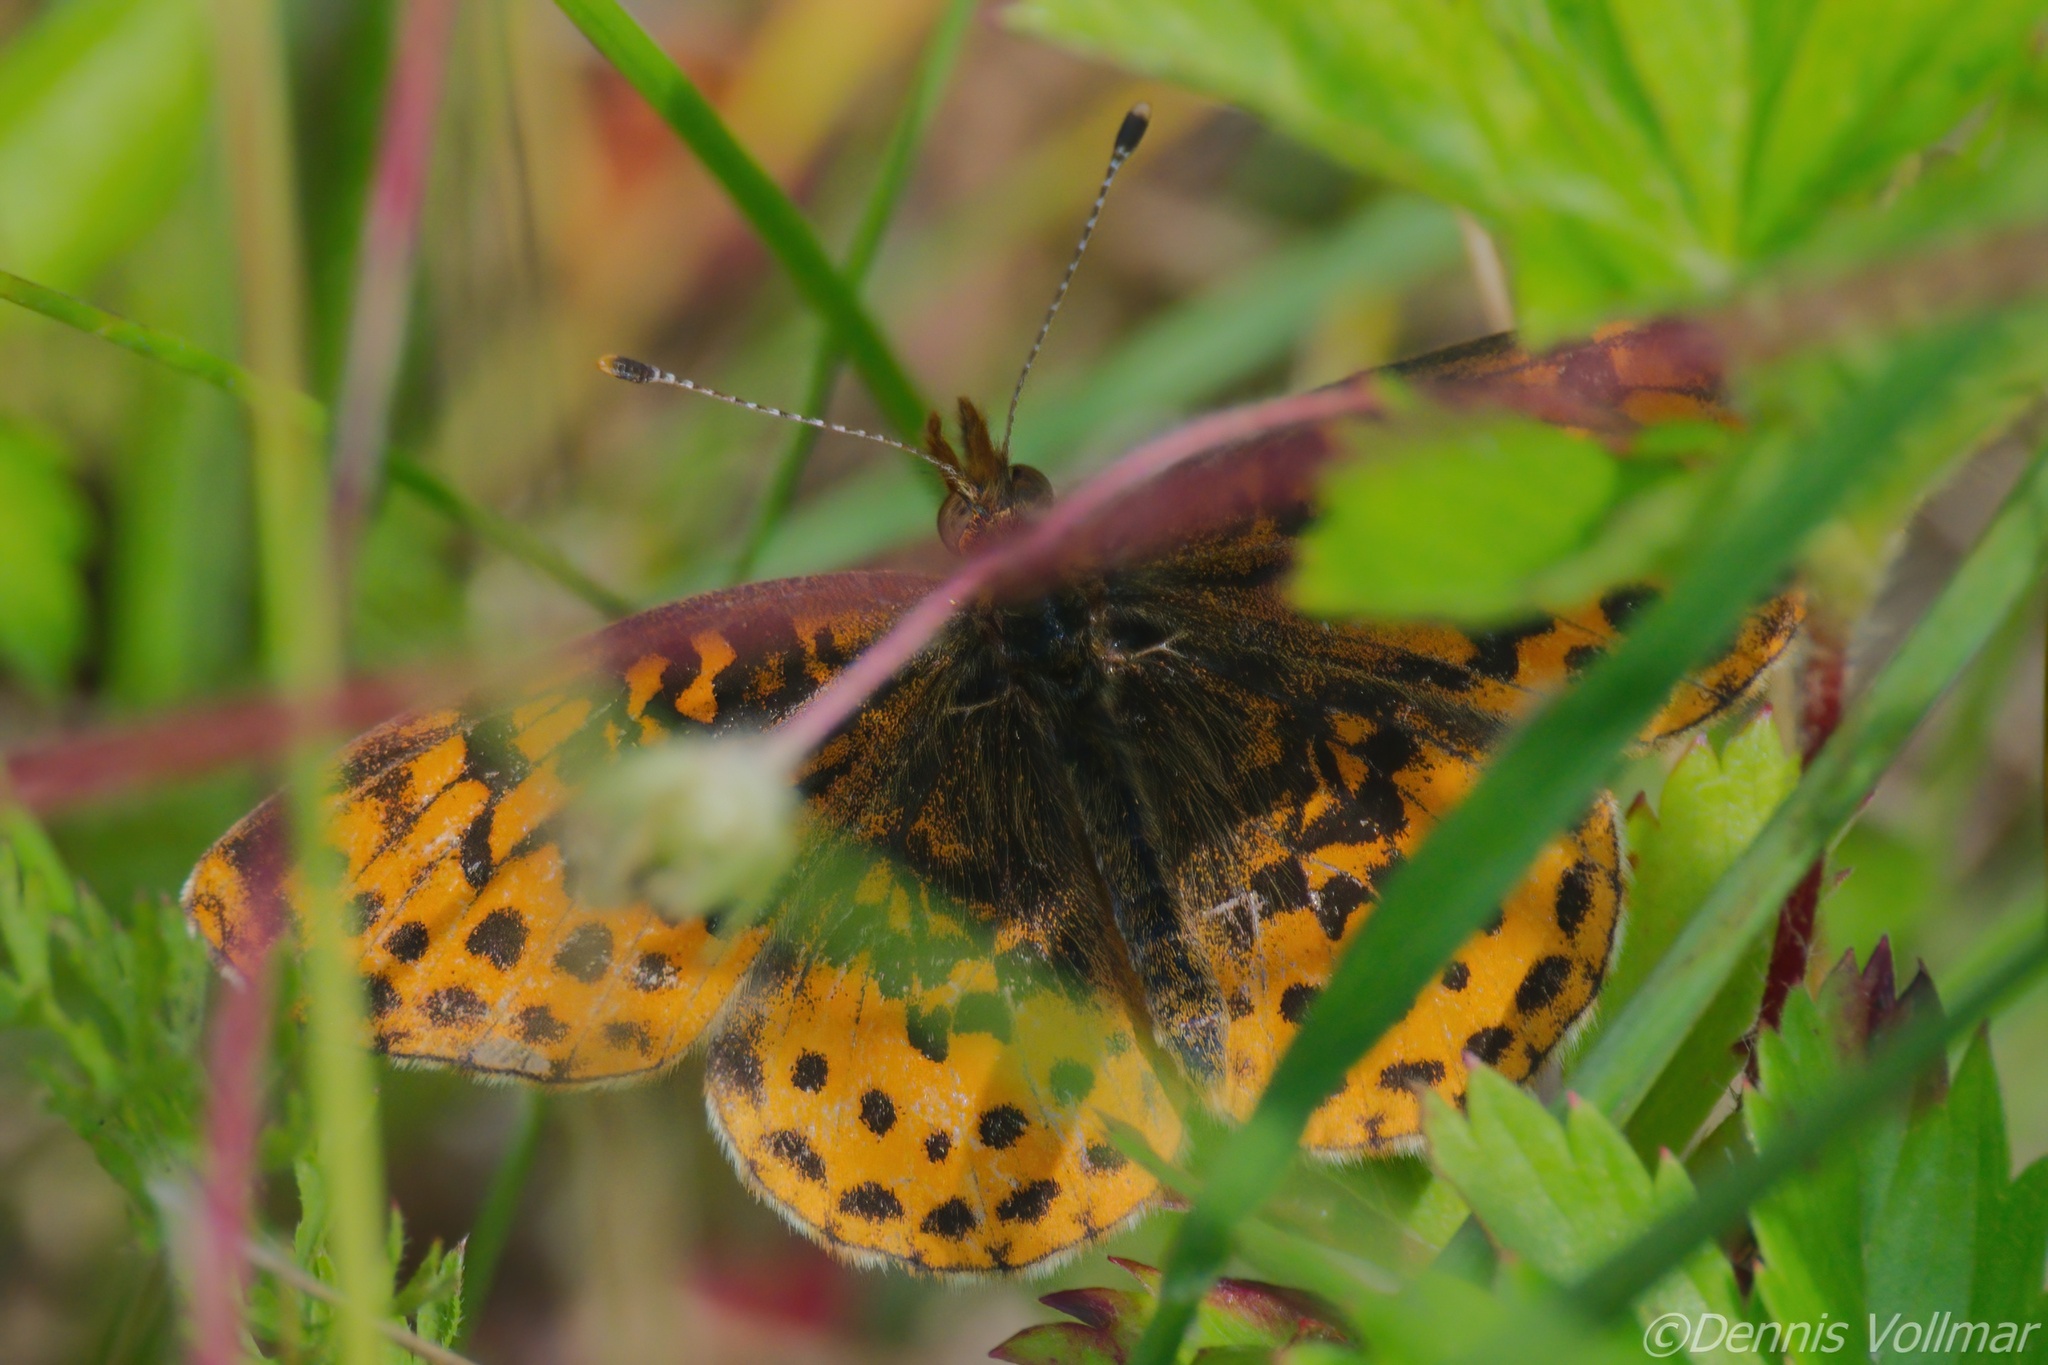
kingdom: Animalia
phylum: Arthropoda
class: Insecta
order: Lepidoptera
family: Nymphalidae
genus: Clossiana
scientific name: Clossiana toddi
